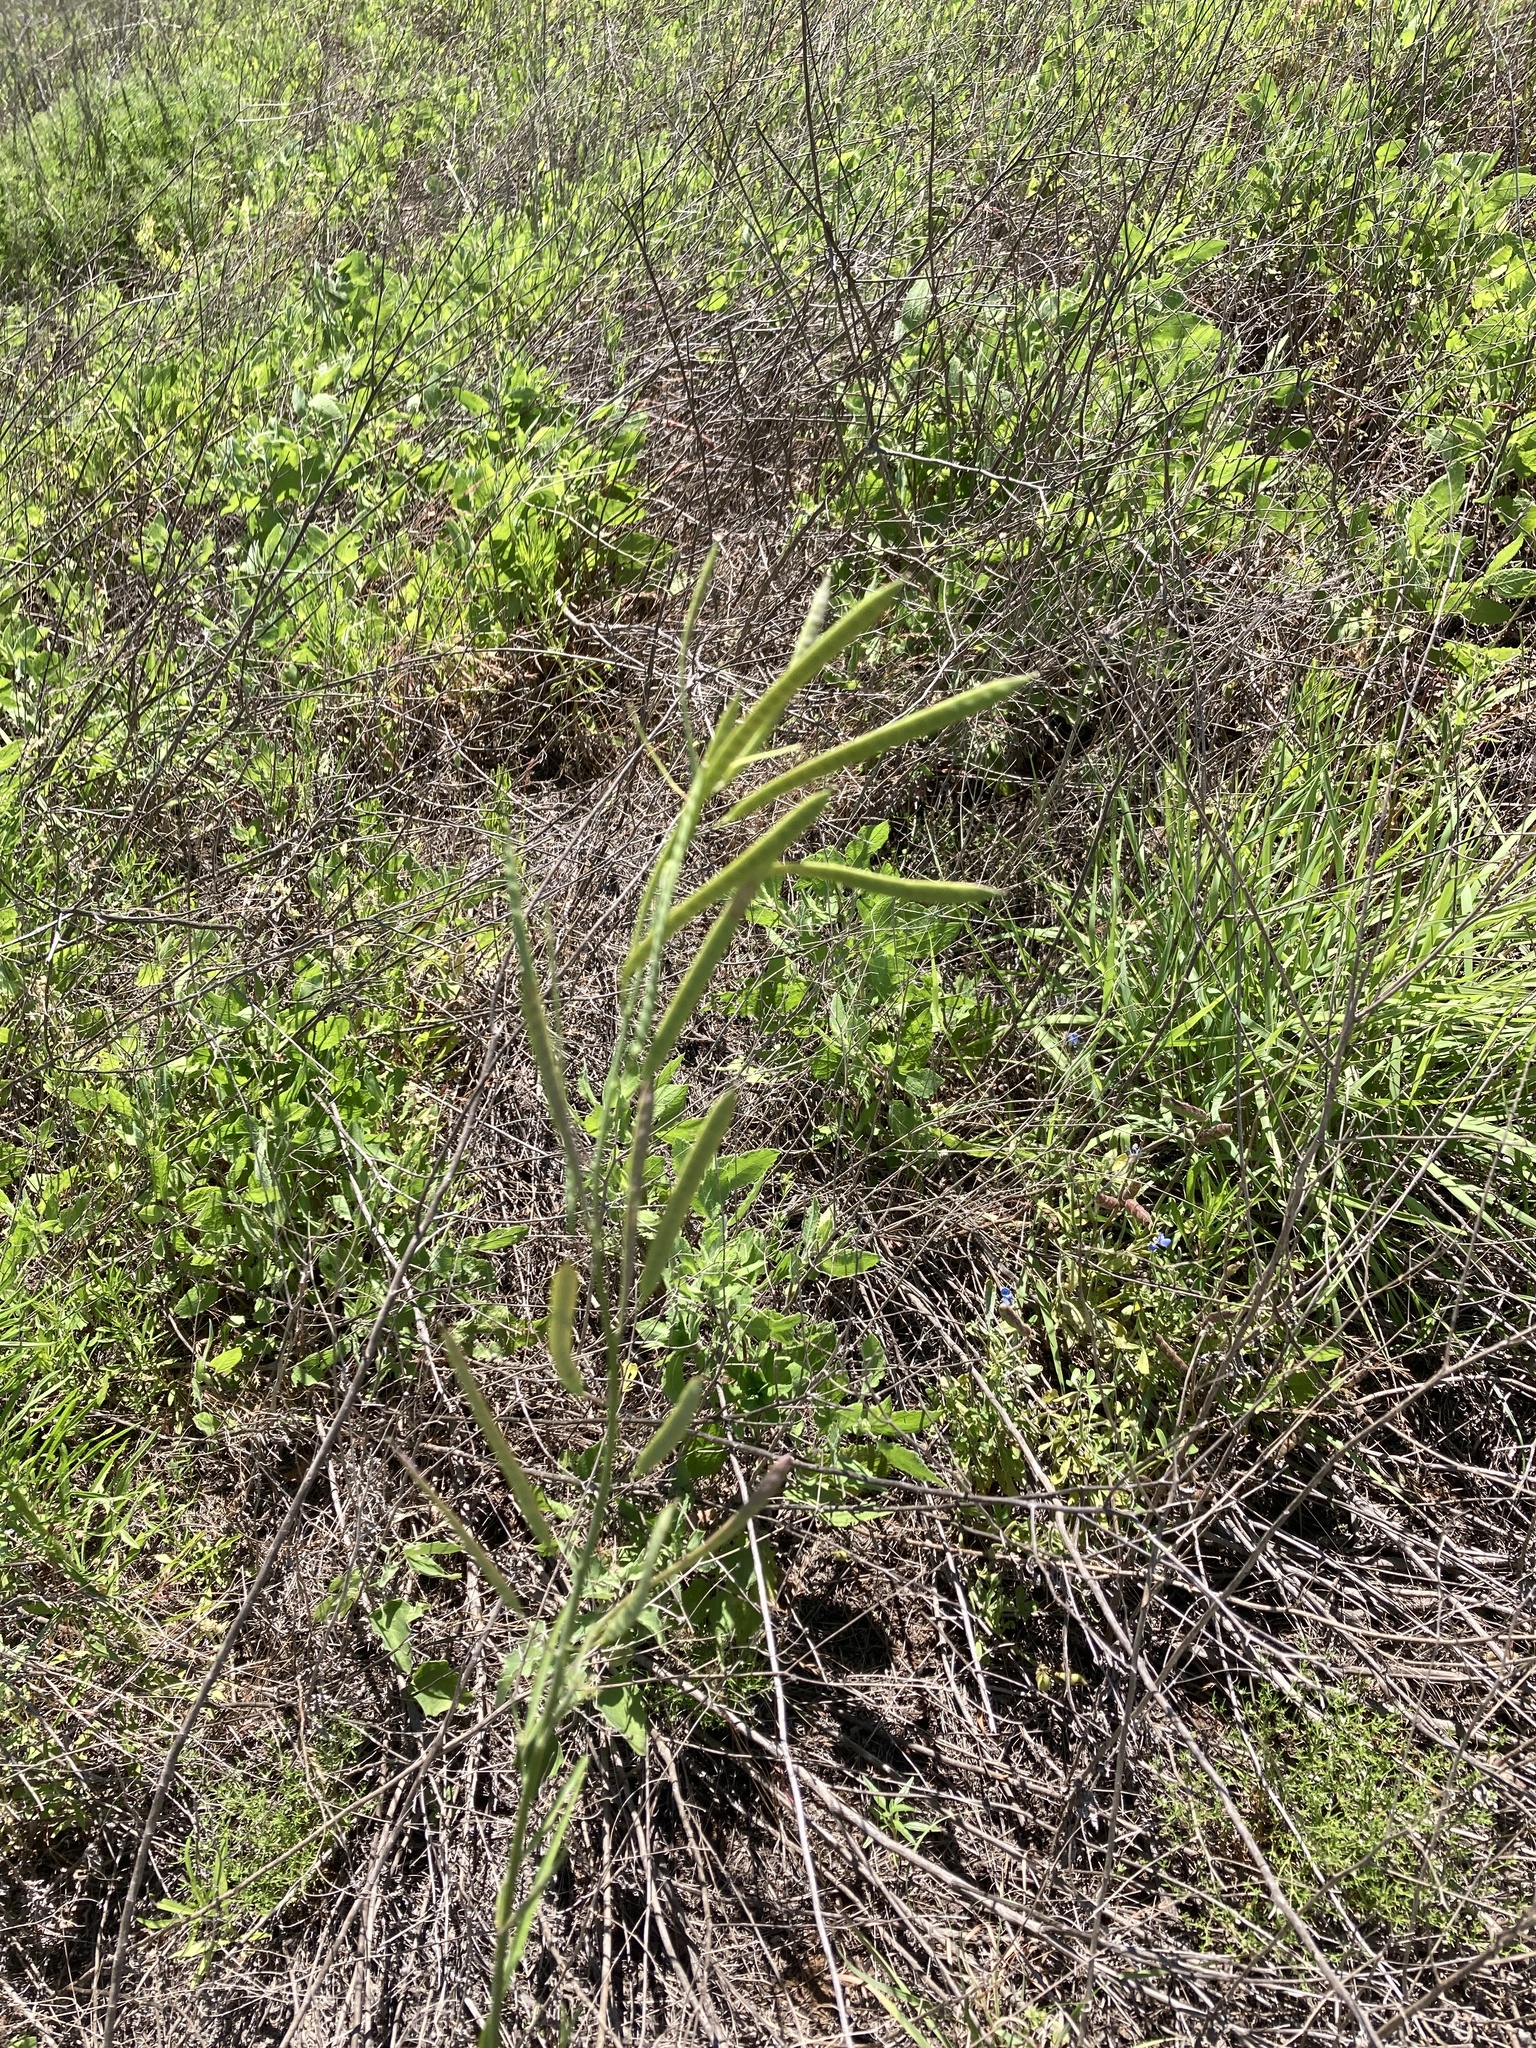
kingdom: Plantae
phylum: Tracheophyta
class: Magnoliopsida
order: Brassicales
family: Brassicaceae
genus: Streptanthus
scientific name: Streptanthus petiolaris
